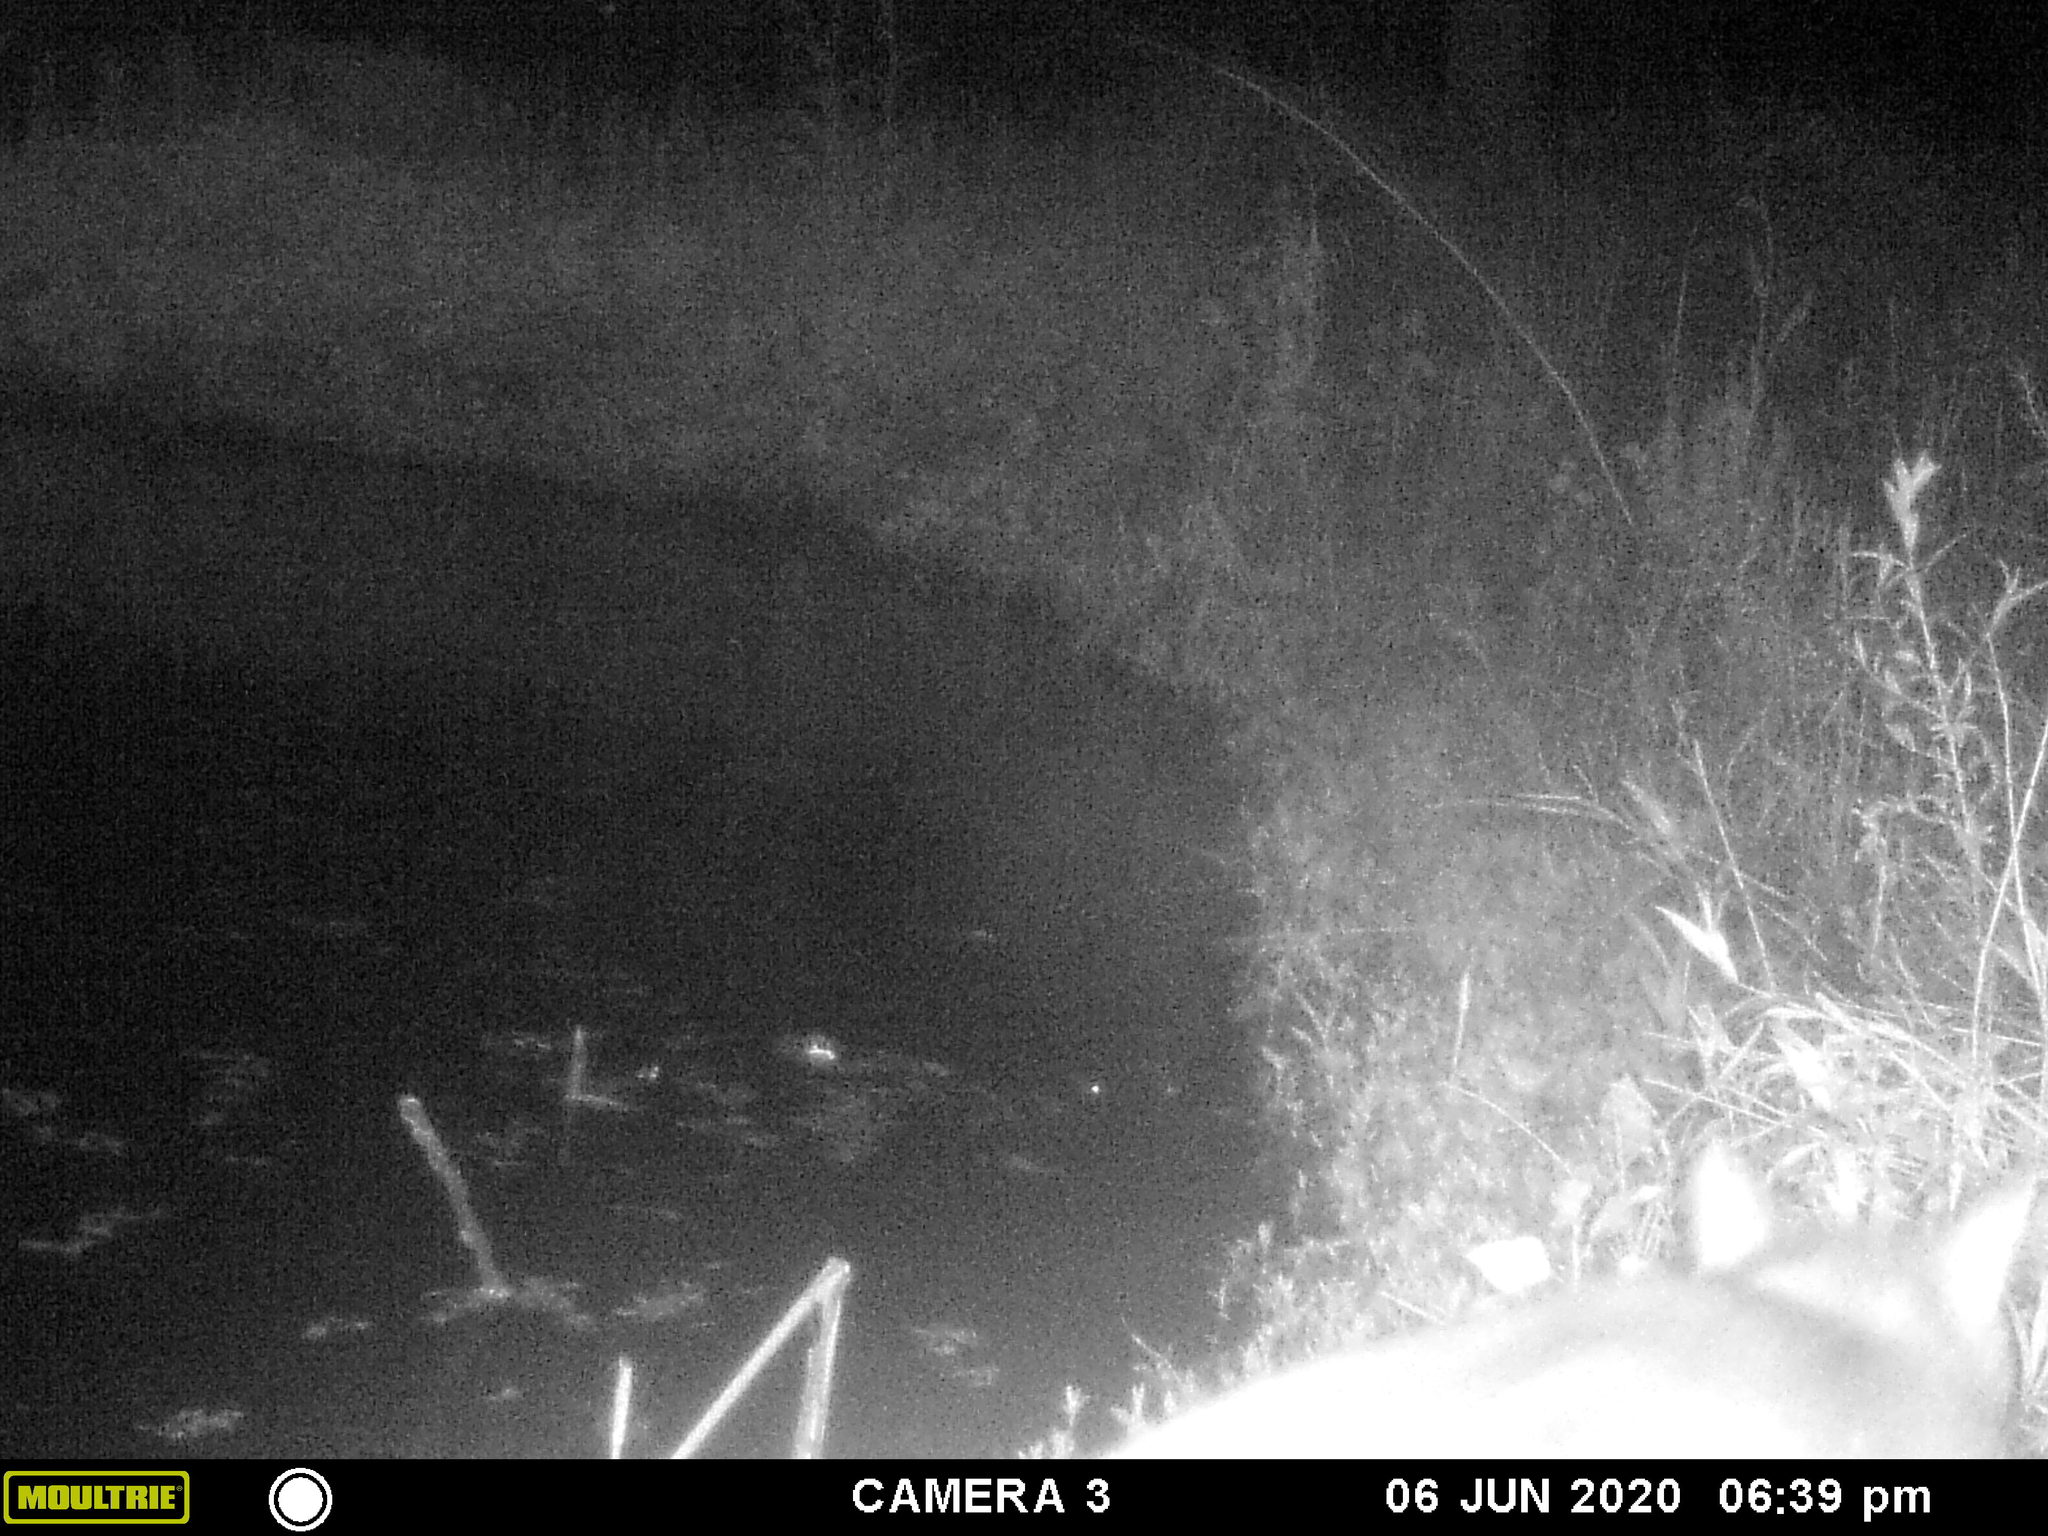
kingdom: Animalia
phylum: Chordata
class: Mammalia
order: Carnivora
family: Felidae
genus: Felis
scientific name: Felis catus
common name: Domestic cat
